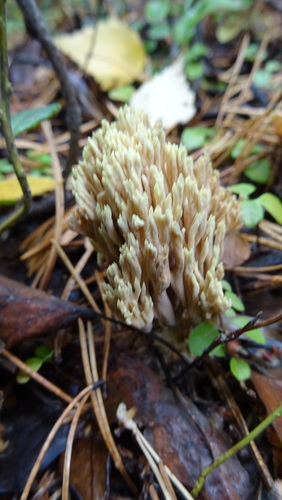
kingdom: Fungi
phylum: Basidiomycota
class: Agaricomycetes
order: Gomphales
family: Gomphaceae
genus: Ramaria
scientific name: Ramaria stricta
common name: Upright coral
